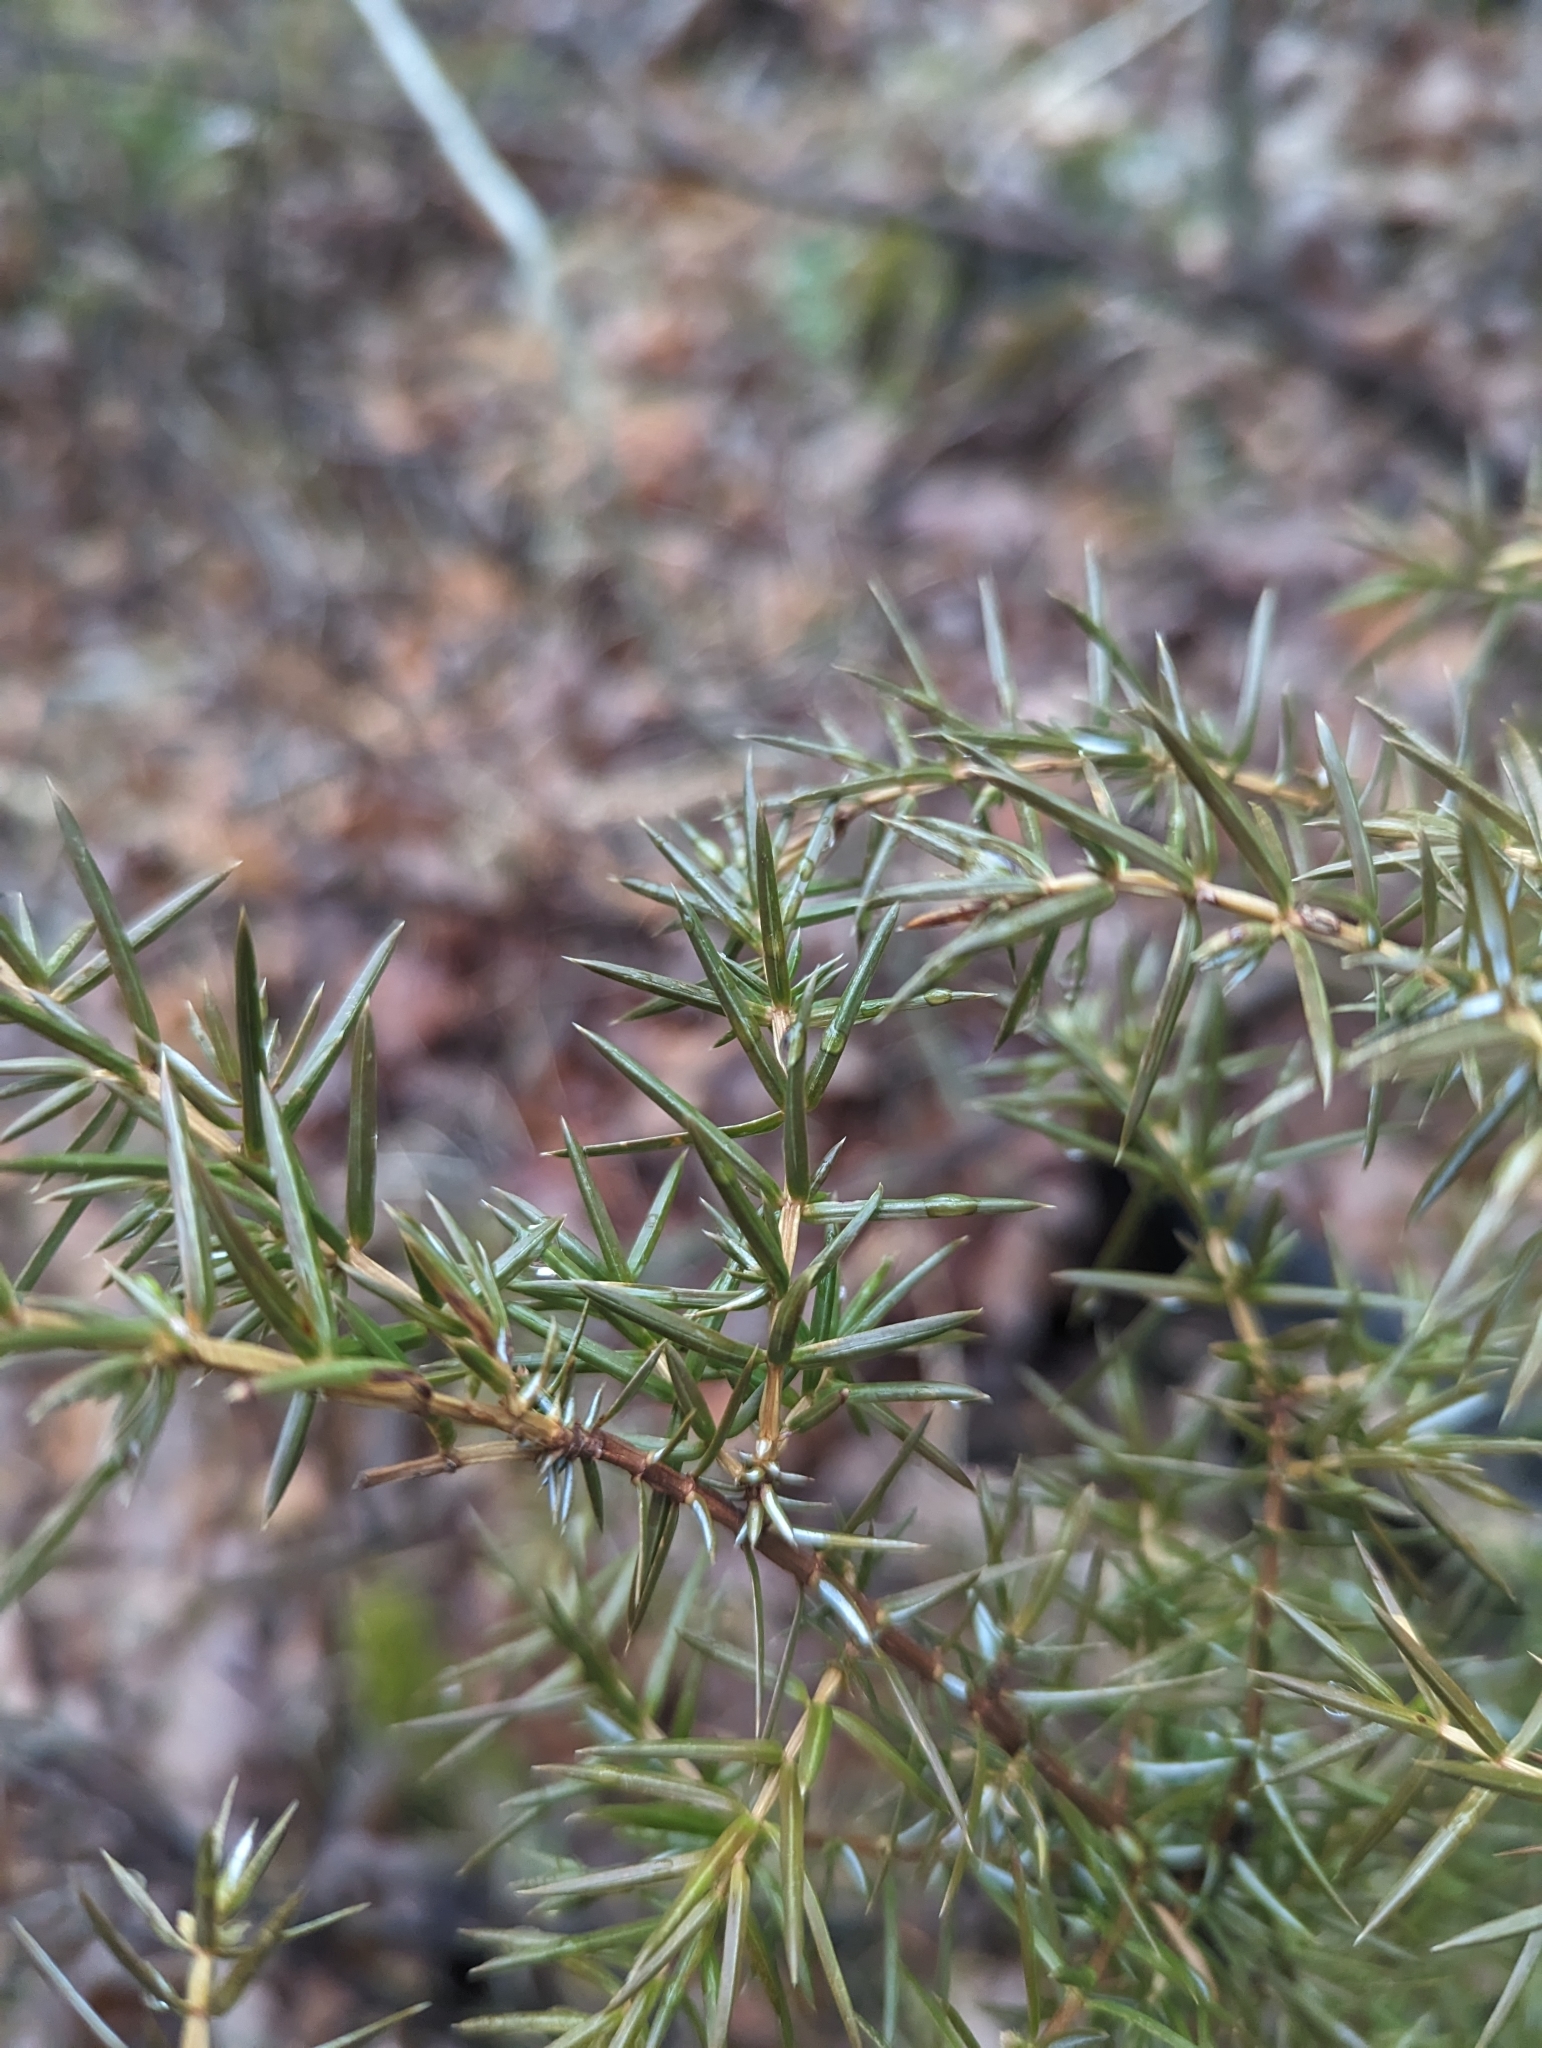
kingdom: Plantae
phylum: Tracheophyta
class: Pinopsida
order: Pinales
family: Cupressaceae
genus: Juniperus
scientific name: Juniperus communis
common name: Common juniper
